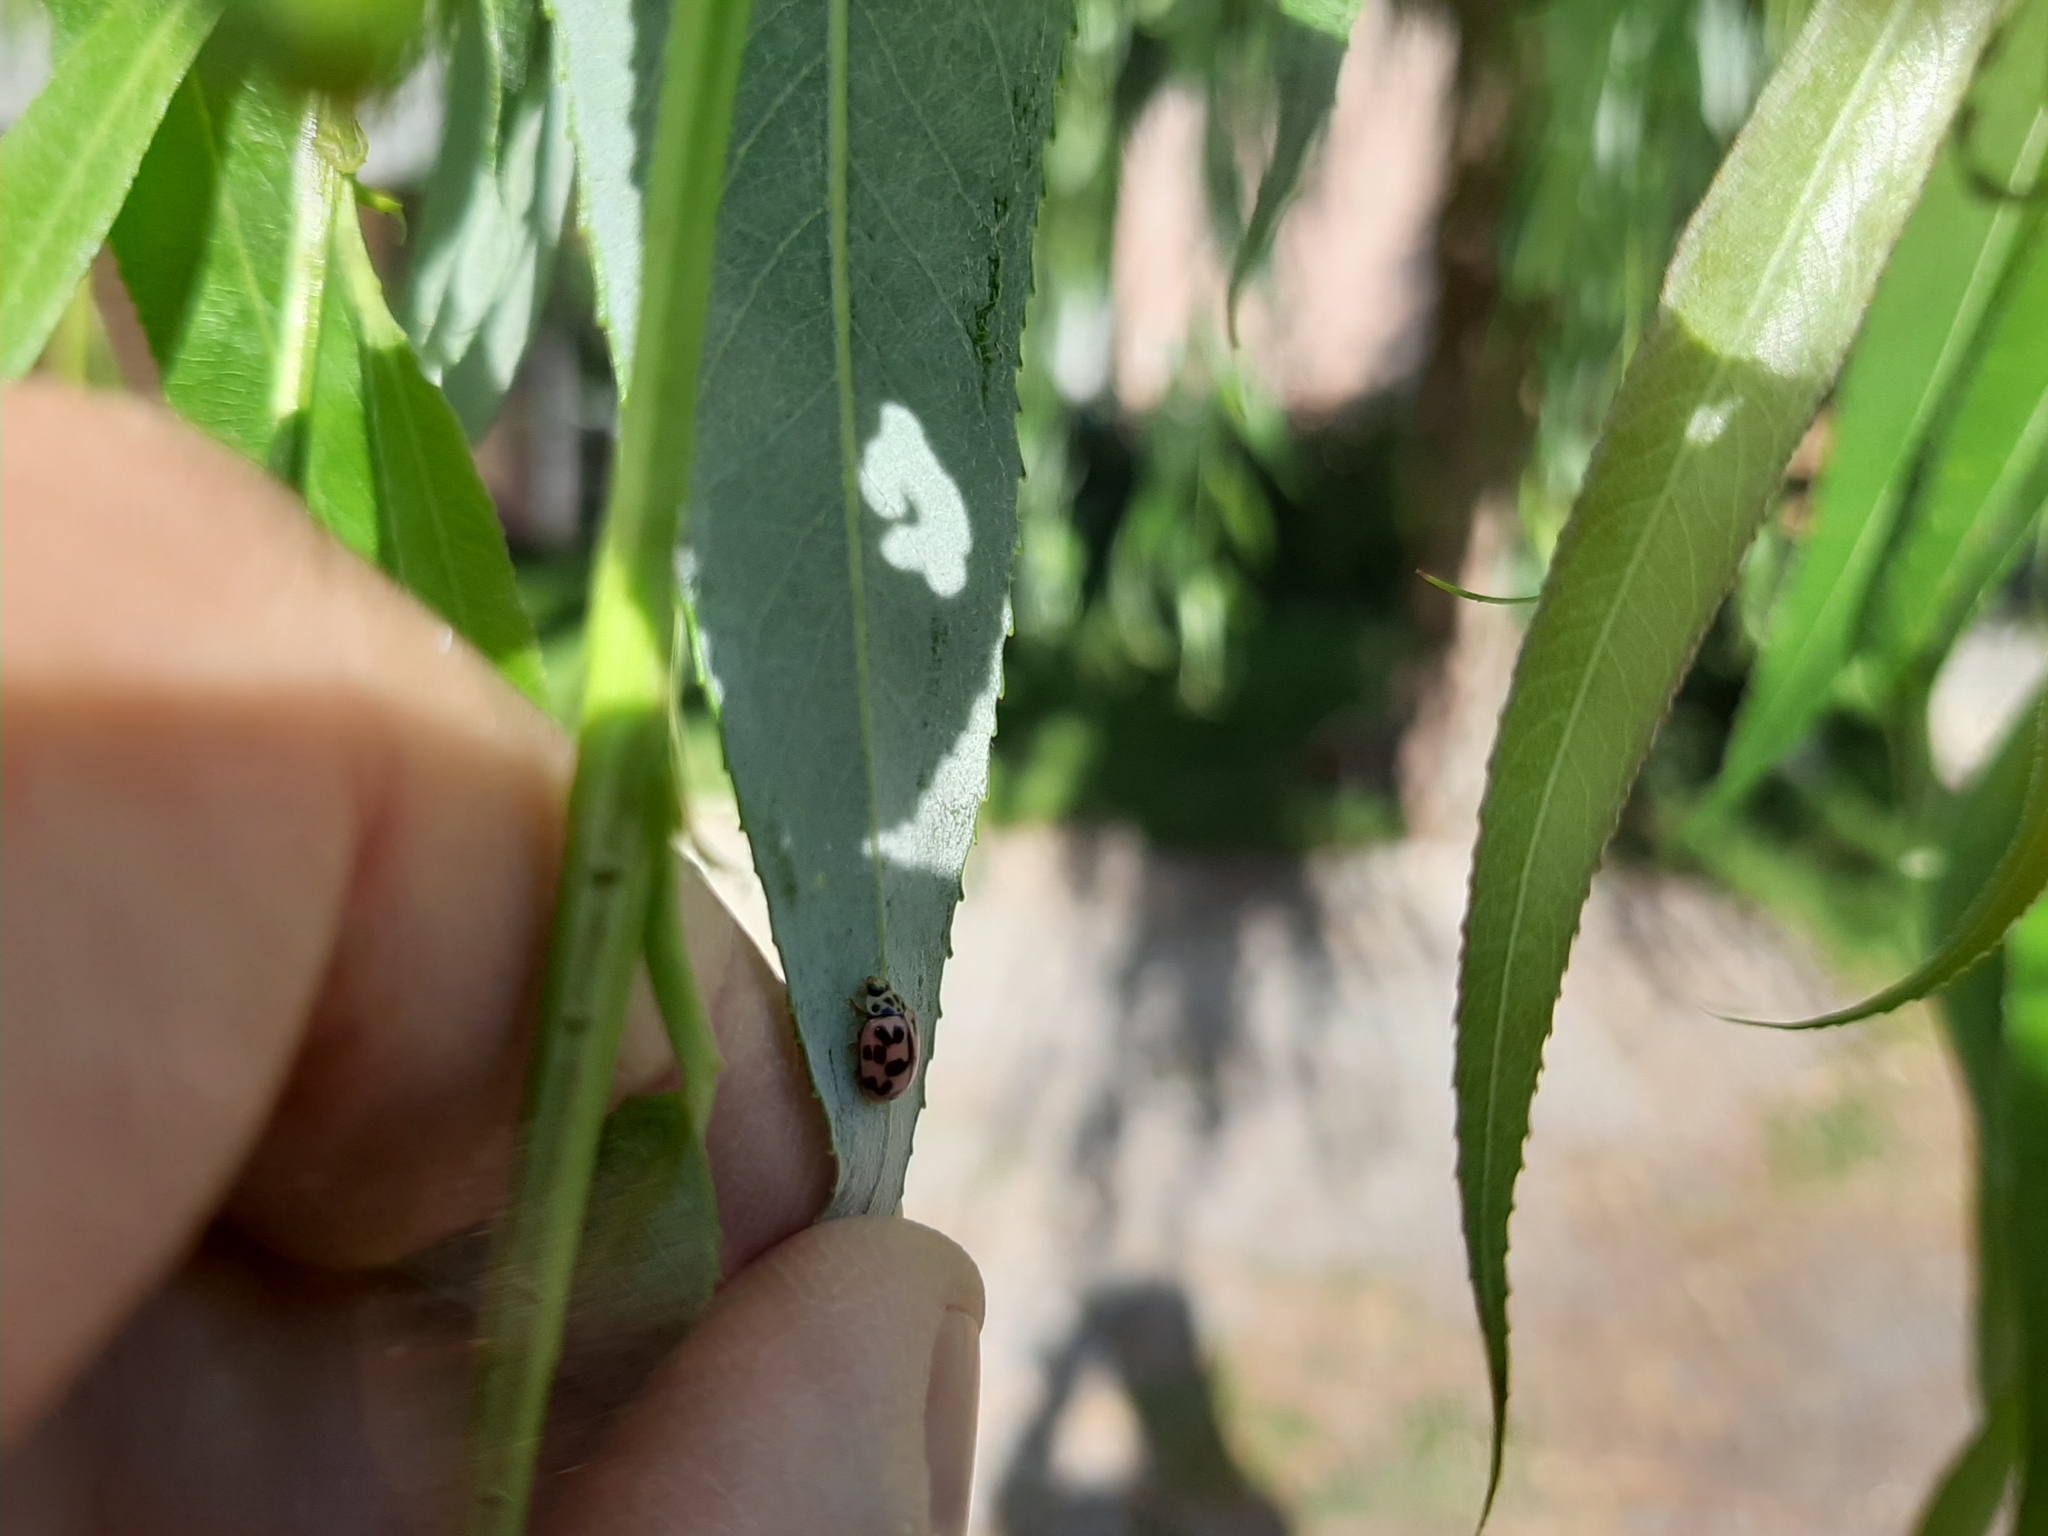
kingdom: Animalia
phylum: Arthropoda
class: Insecta
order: Coleoptera
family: Coccinellidae
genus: Oenopia
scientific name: Oenopia conglobata
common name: Ladybird beetle
